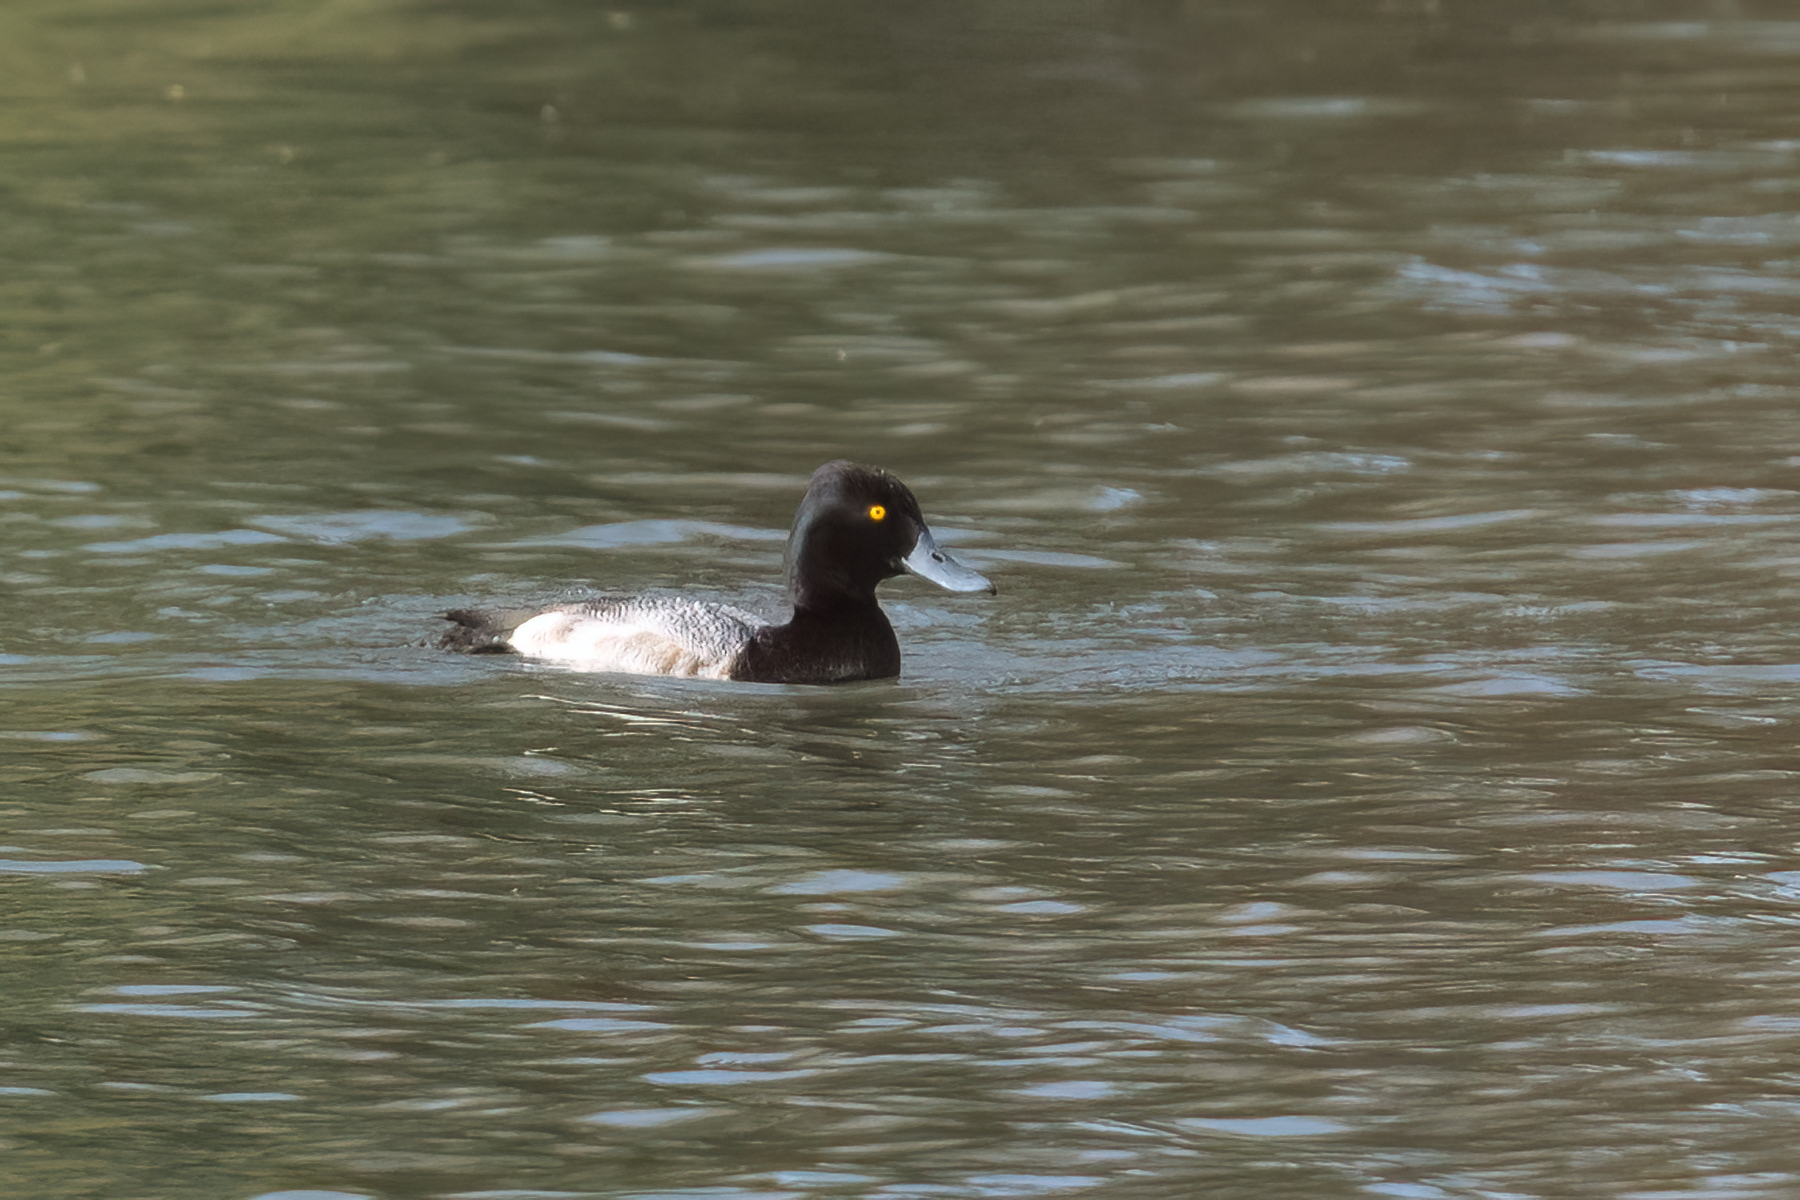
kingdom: Animalia
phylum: Chordata
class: Aves
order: Anseriformes
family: Anatidae
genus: Aythya
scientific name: Aythya affinis
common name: Lesser scaup
